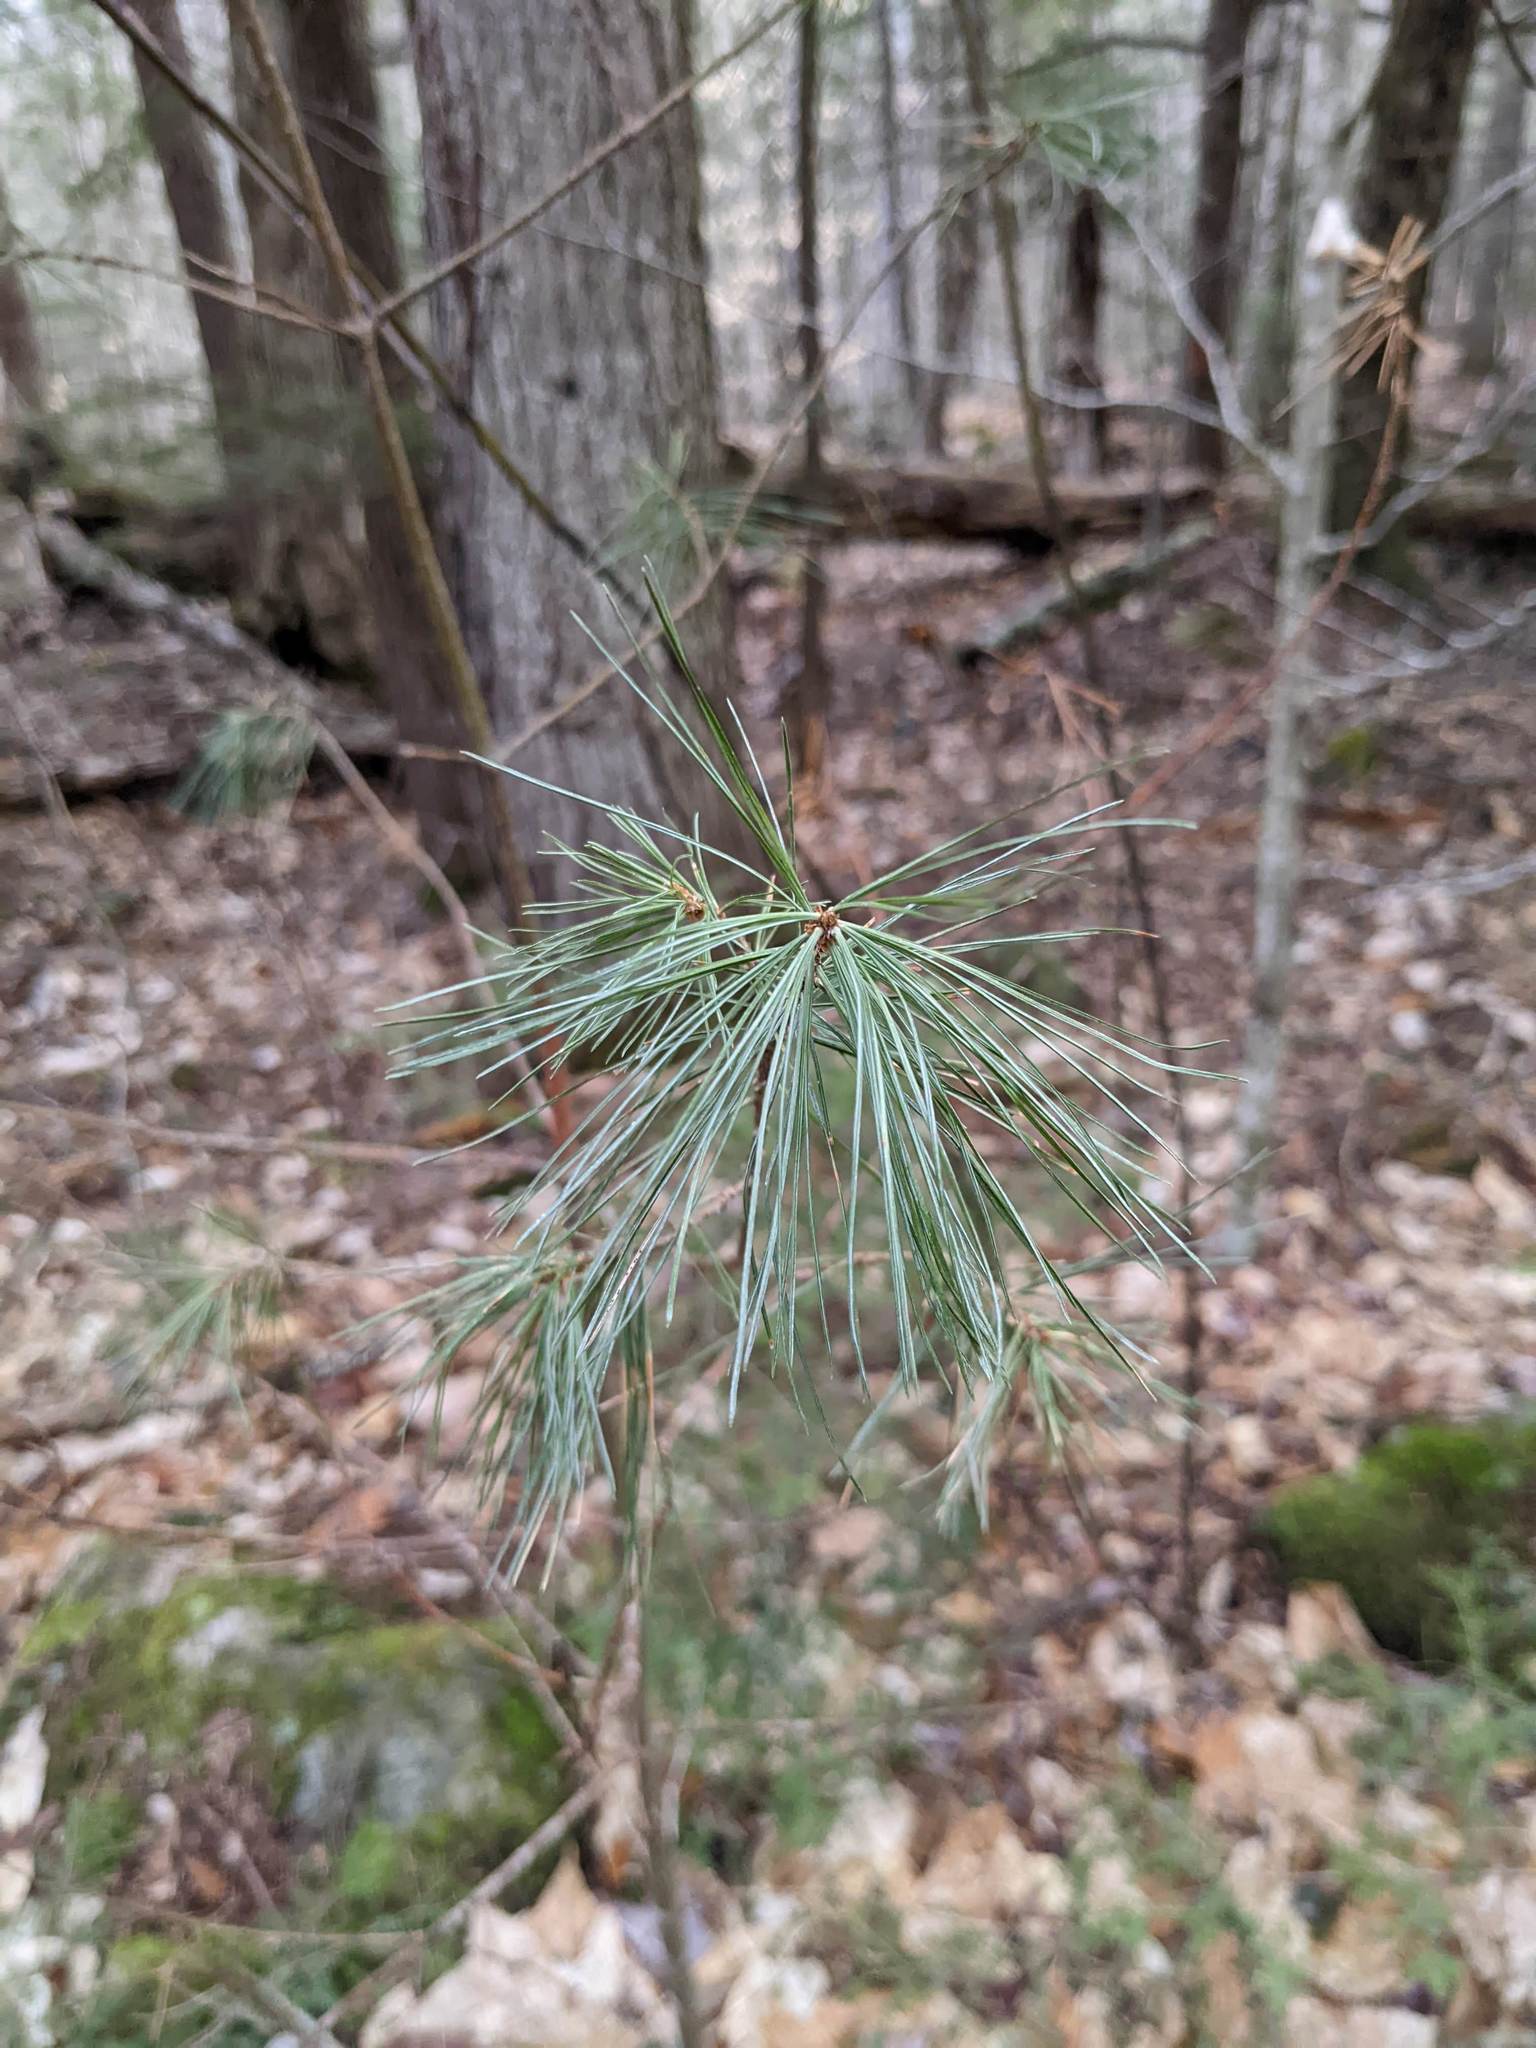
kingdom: Plantae
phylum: Tracheophyta
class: Pinopsida
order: Pinales
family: Pinaceae
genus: Pinus
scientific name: Pinus strobus
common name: Weymouth pine
